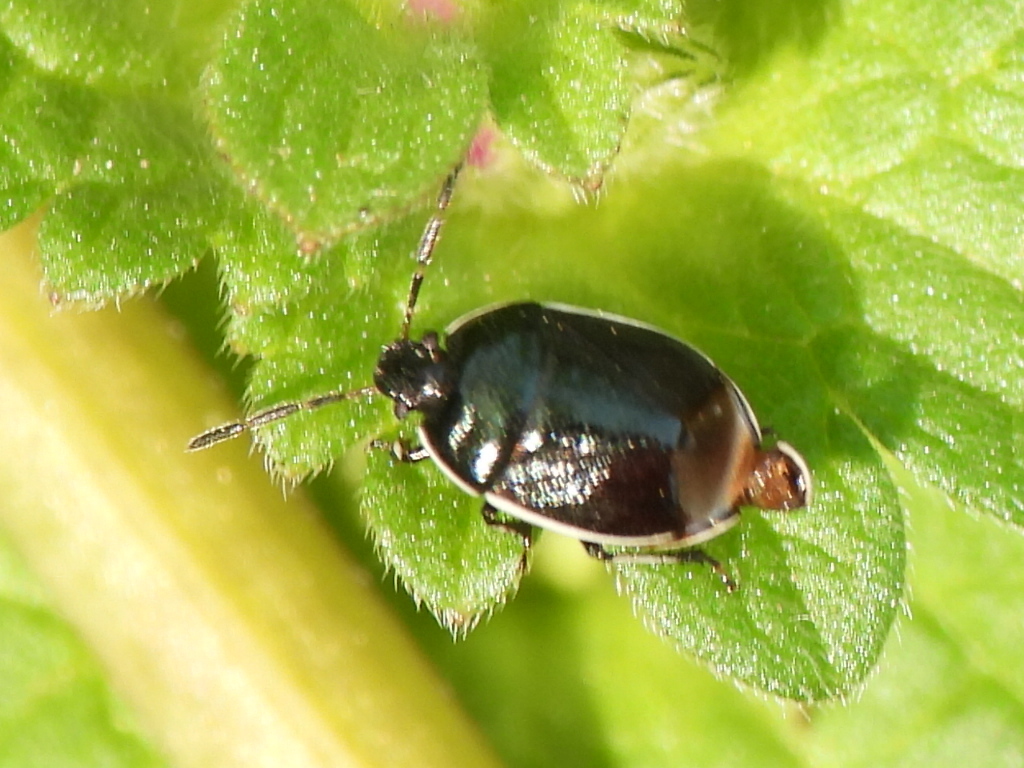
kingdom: Animalia
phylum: Arthropoda
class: Insecta
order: Hemiptera
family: Cydnidae
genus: Sehirus
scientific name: Sehirus cinctus
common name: White-margined burrower bug
